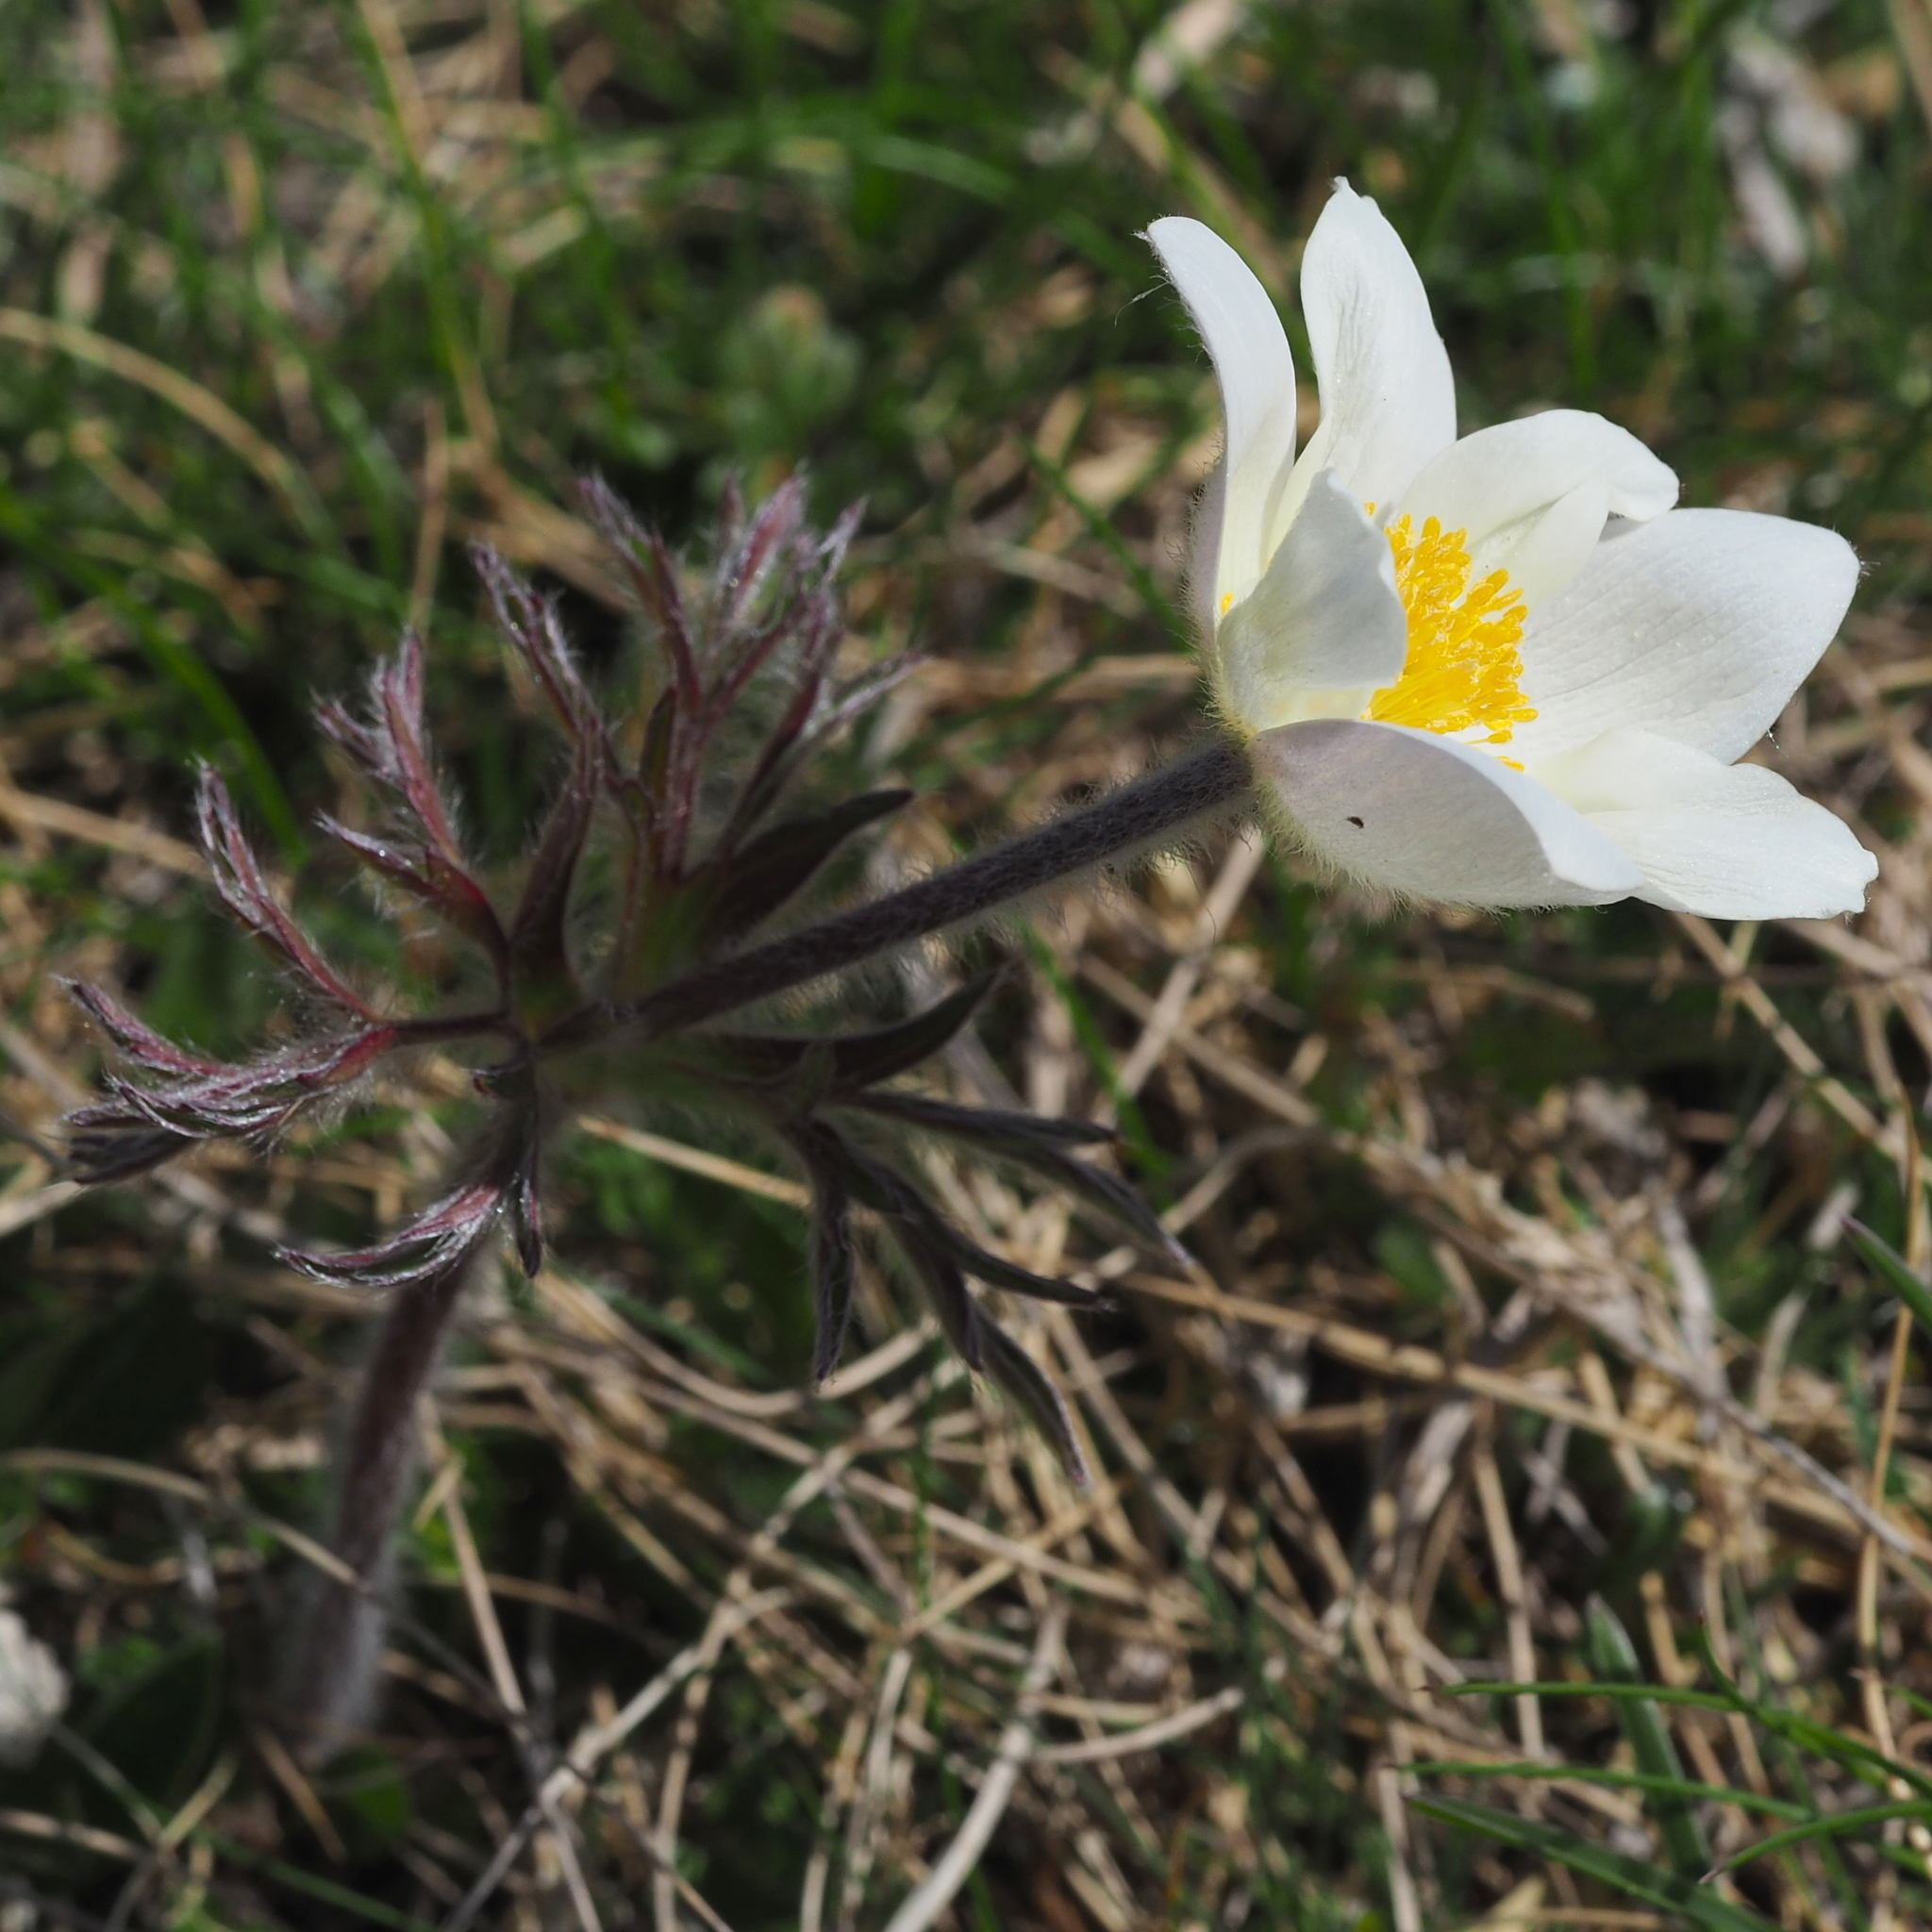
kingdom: Plantae
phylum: Tracheophyta
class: Magnoliopsida
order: Ranunculales
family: Ranunculaceae
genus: Pulsatilla
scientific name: Pulsatilla alpina
